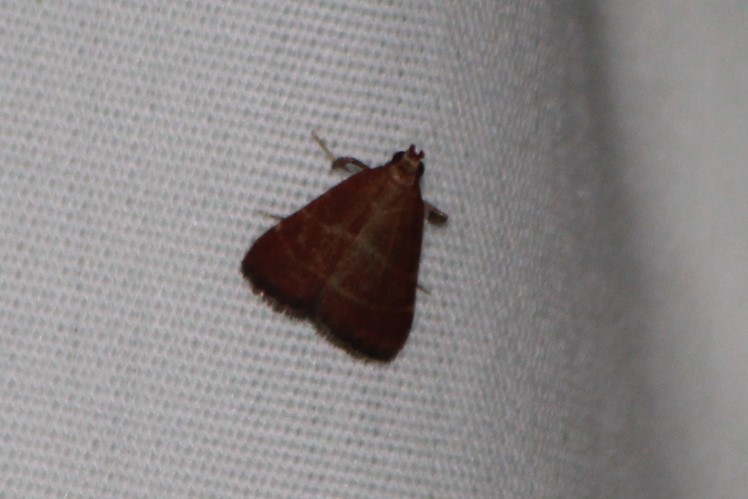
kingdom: Animalia
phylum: Arthropoda
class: Insecta
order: Lepidoptera
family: Pyralidae
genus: Arta
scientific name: Arta statalis
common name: Posturing arta moth
